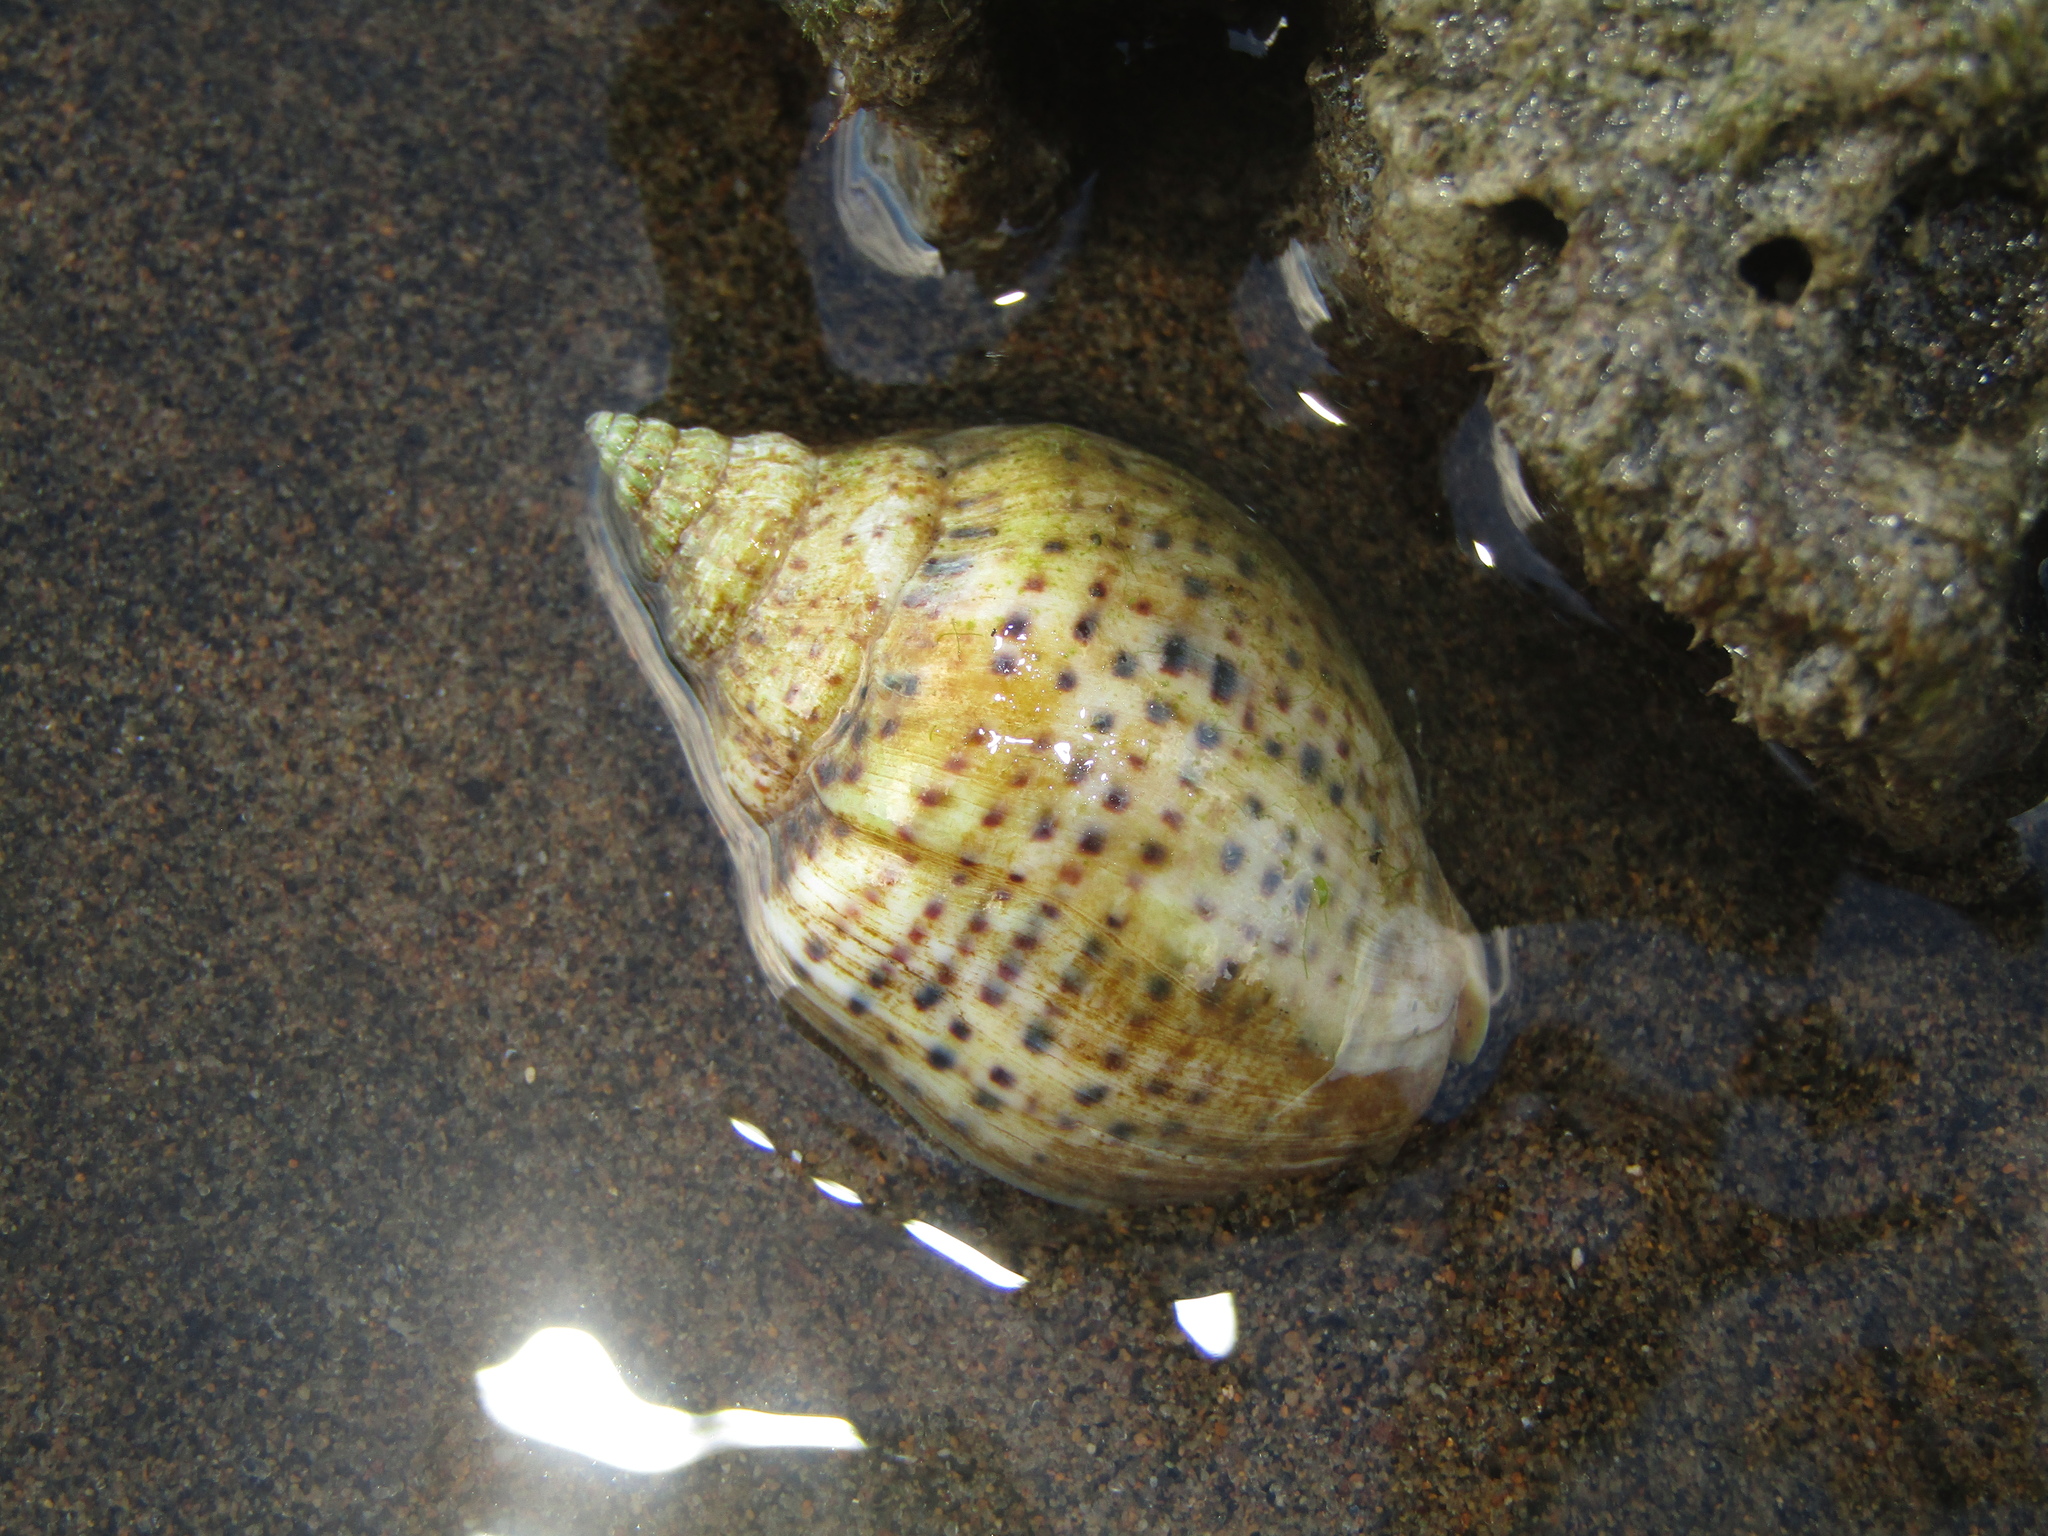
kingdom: Animalia
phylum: Mollusca
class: Gastropoda
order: Neogastropoda
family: Cominellidae
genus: Cominella
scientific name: Cominella adspersa
